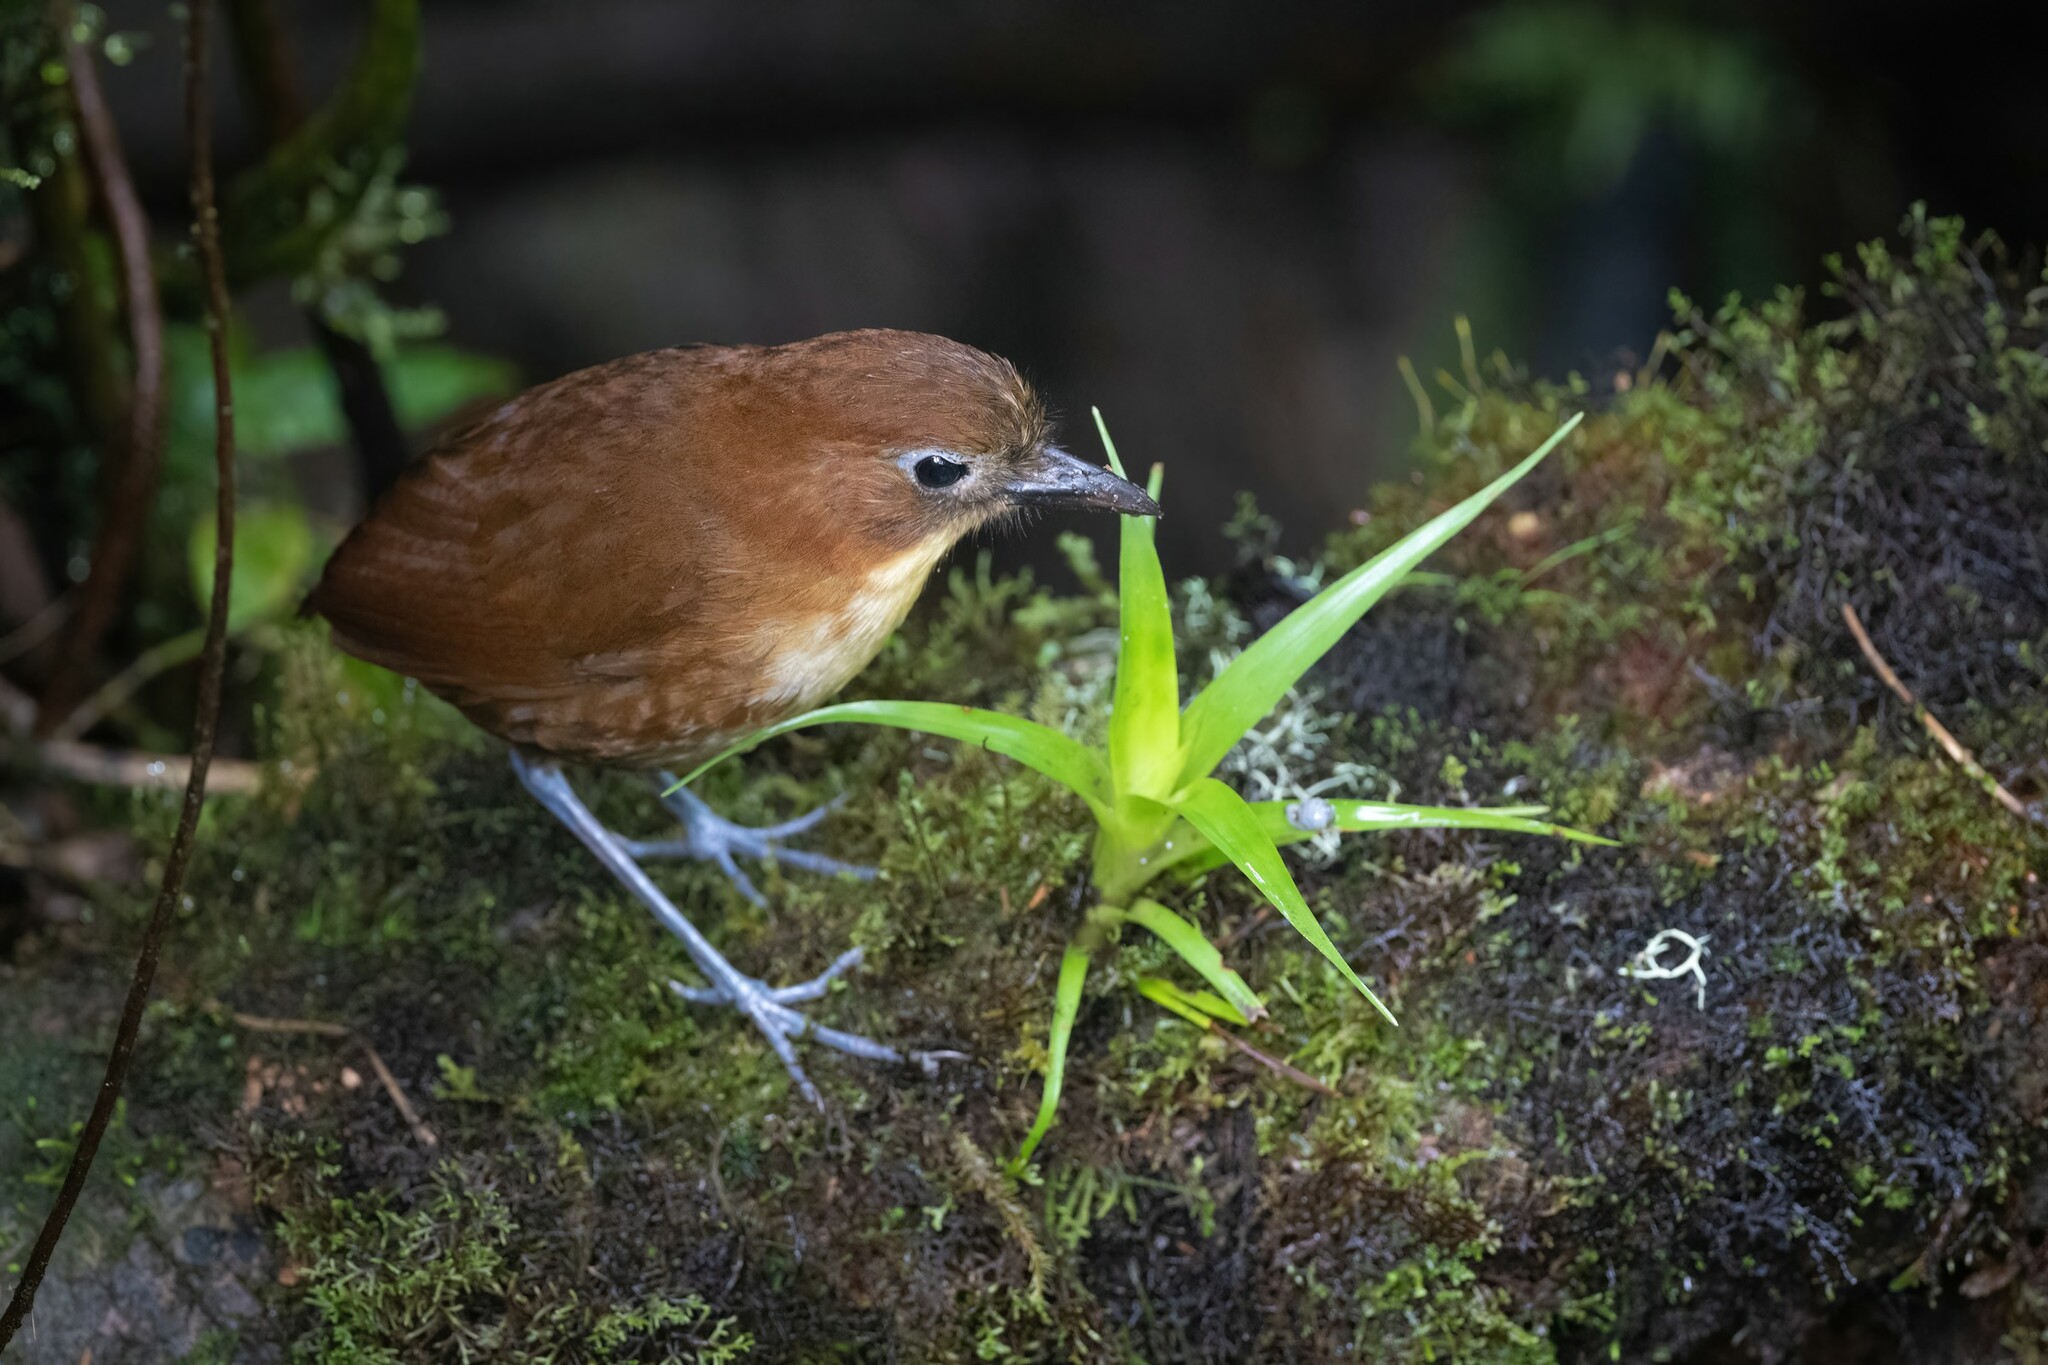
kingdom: Animalia
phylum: Chordata
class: Aves
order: Passeriformes
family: Grallariidae
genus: Grallaria
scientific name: Grallaria flavotincta
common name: Yellow-breasted antpitta
